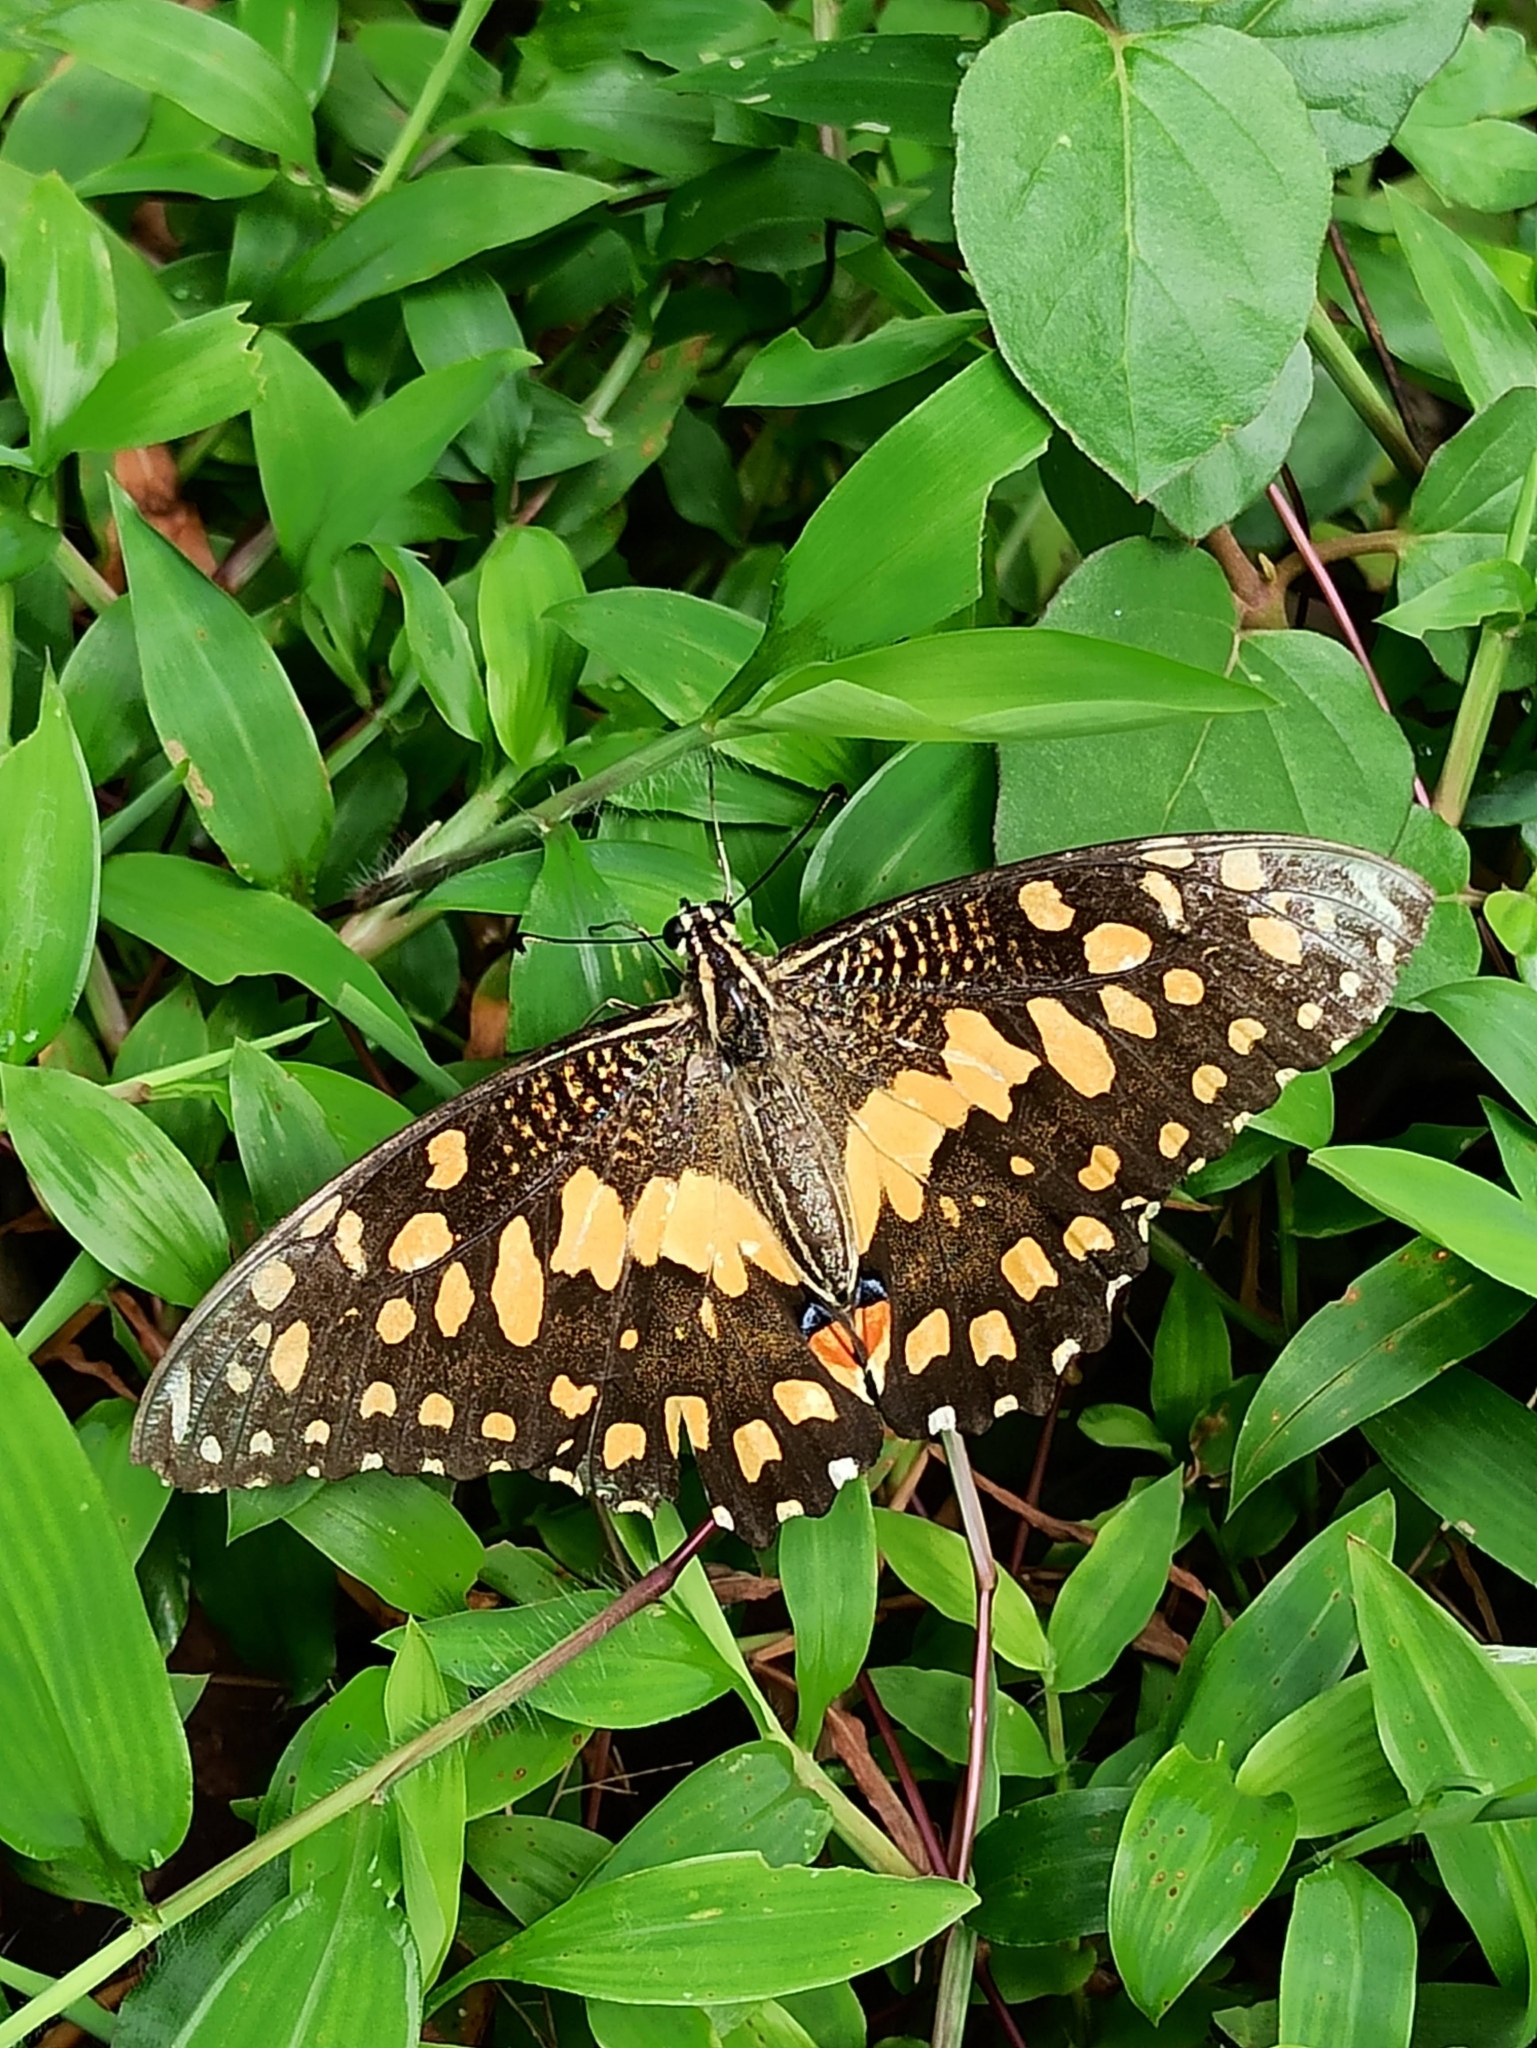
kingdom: Animalia
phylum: Arthropoda
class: Insecta
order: Lepidoptera
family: Papilionidae
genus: Papilio
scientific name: Papilio demoleus
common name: Lime butterfly
